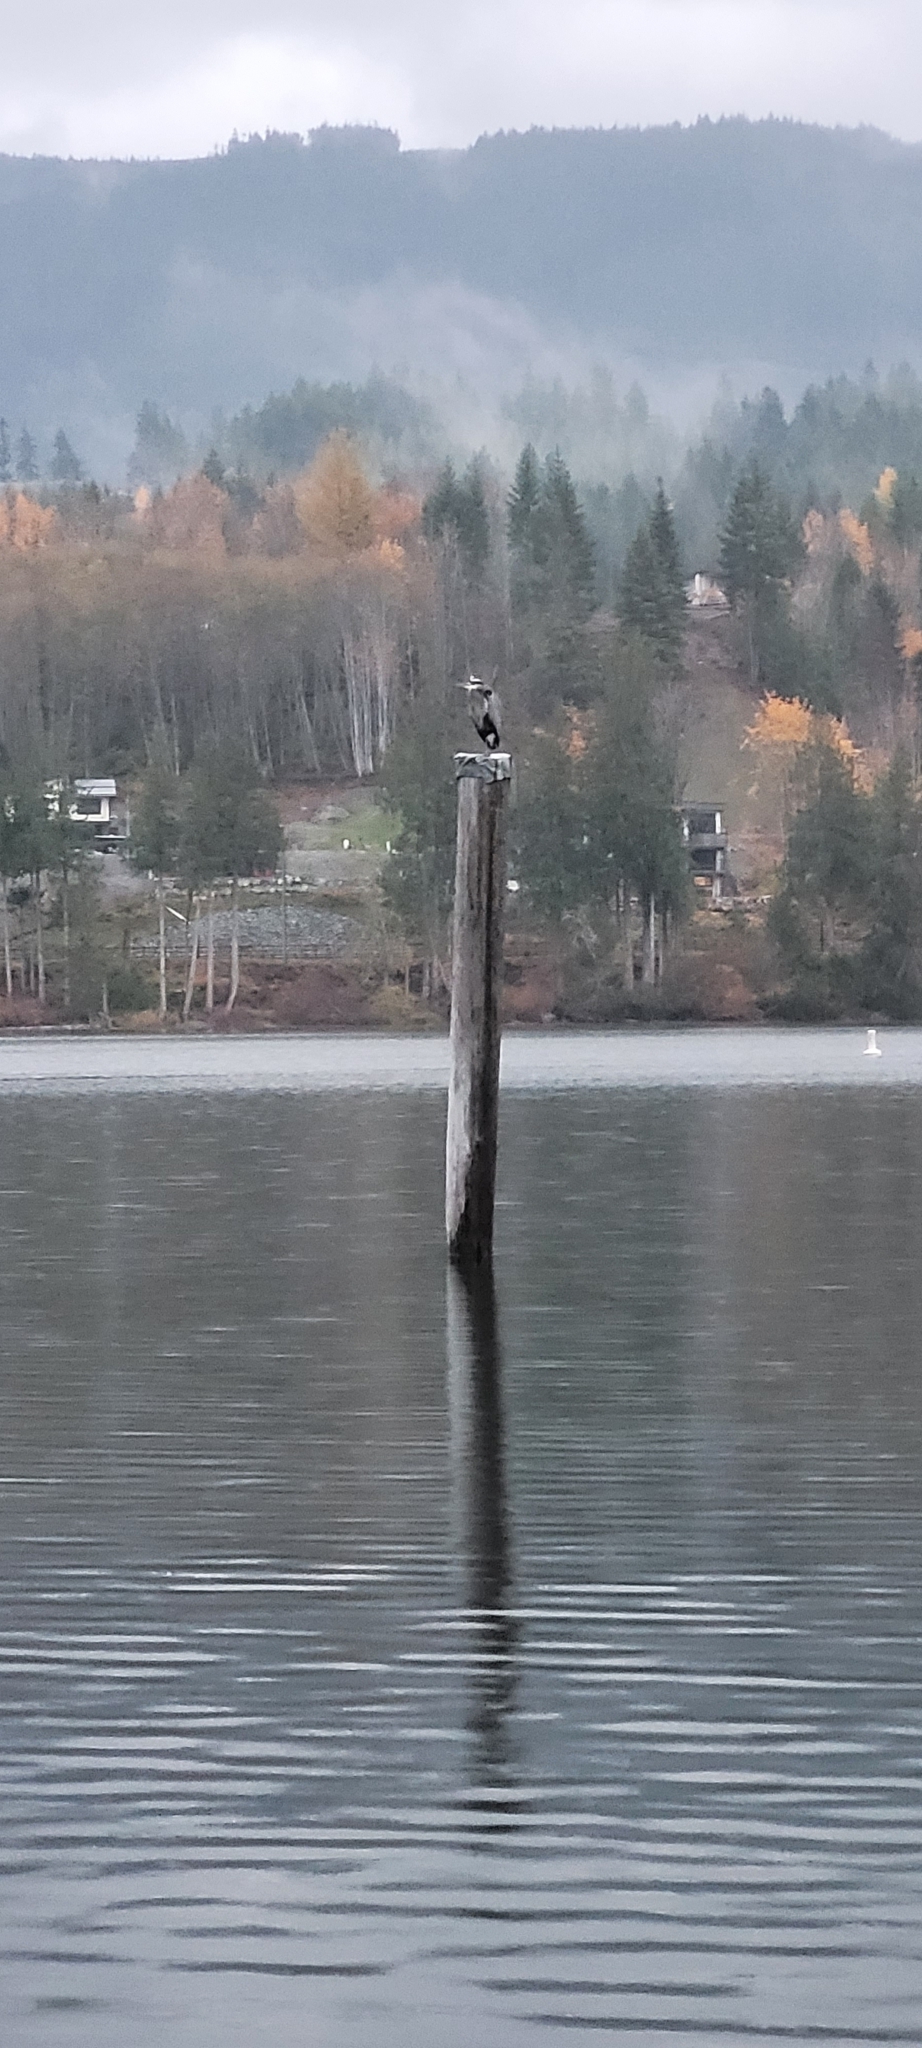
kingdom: Animalia
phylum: Chordata
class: Aves
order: Pelecaniformes
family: Ardeidae
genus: Ardea
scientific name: Ardea herodias
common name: Great blue heron
